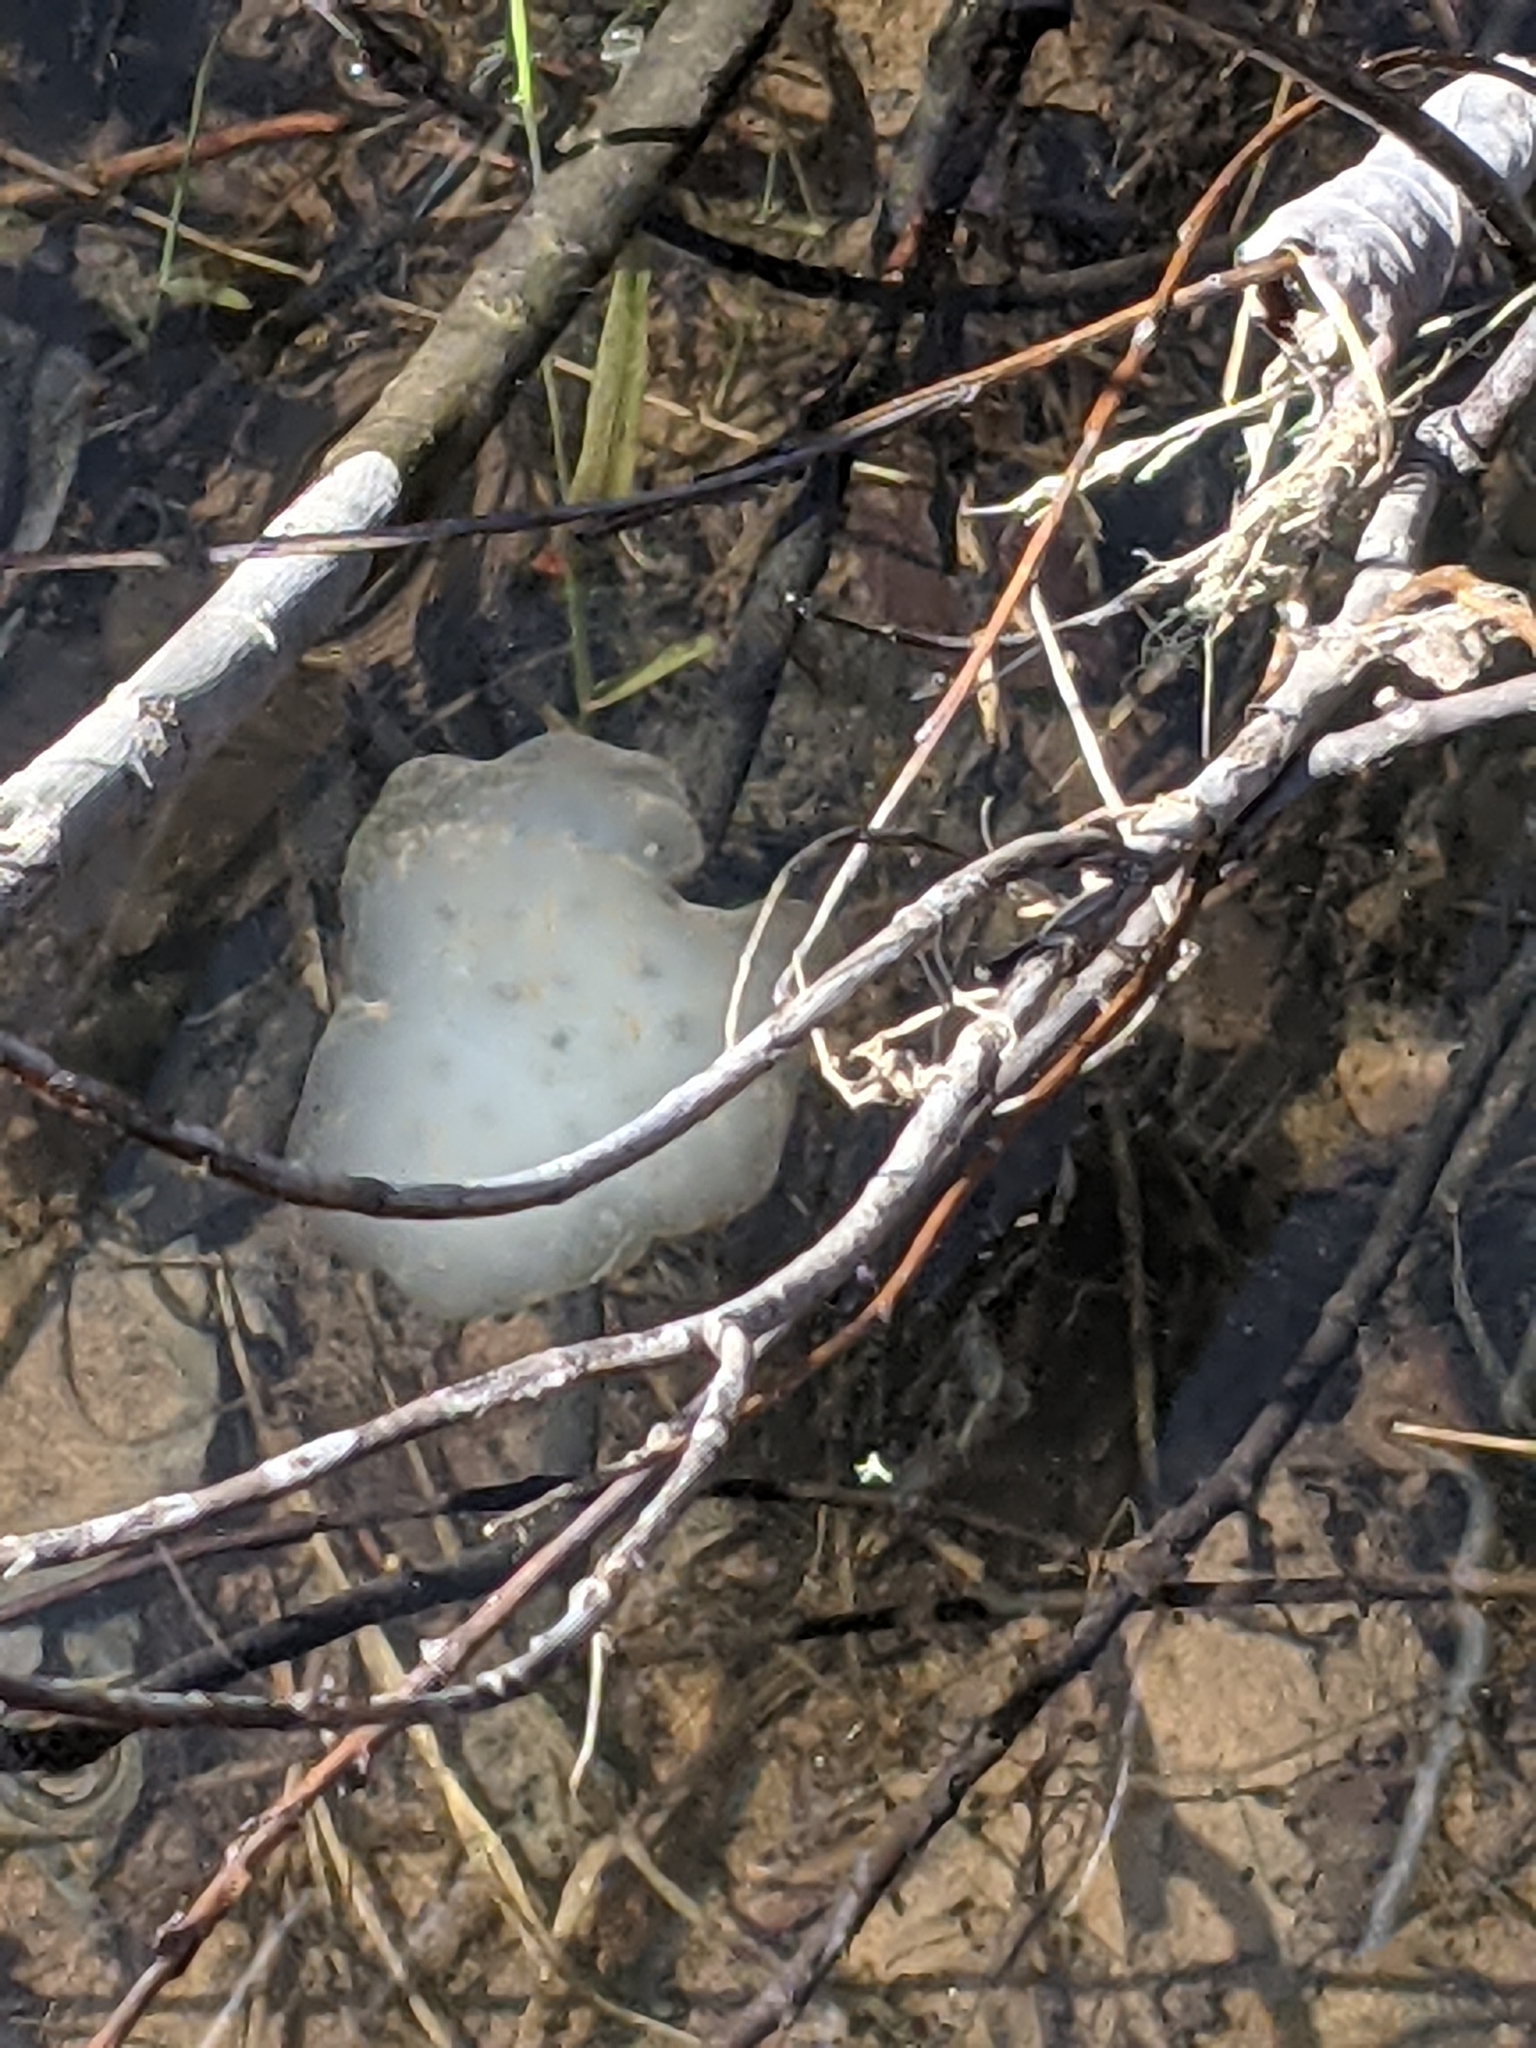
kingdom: Animalia
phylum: Chordata
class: Amphibia
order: Caudata
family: Ambystomatidae
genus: Ambystoma
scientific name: Ambystoma maculatum
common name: Spotted salamander
